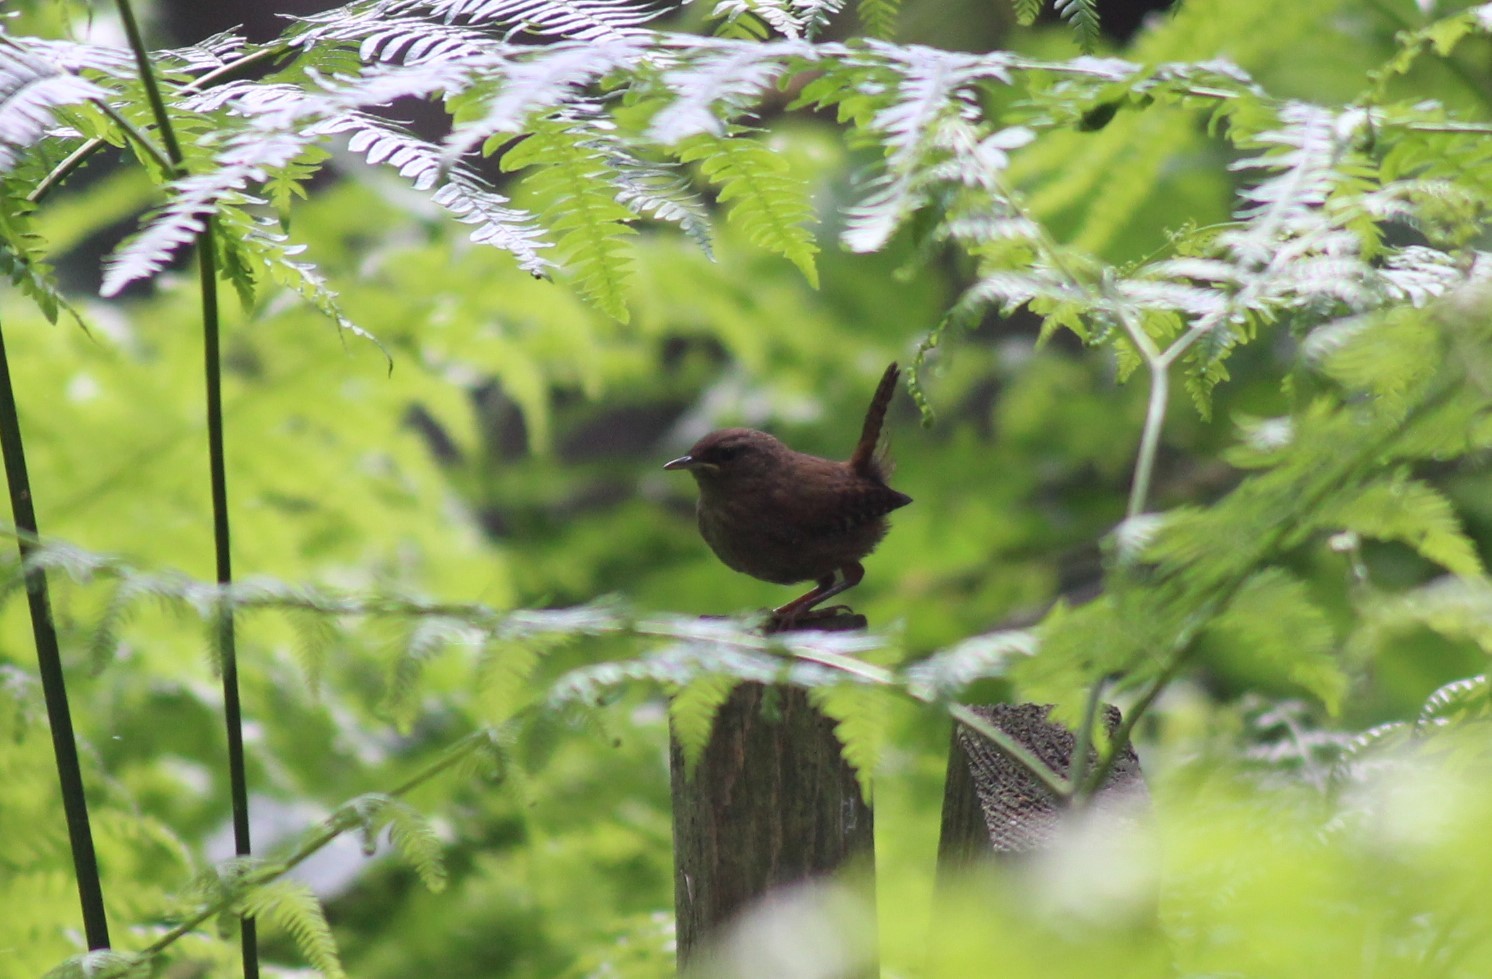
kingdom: Animalia
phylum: Chordata
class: Aves
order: Passeriformes
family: Troglodytidae
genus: Troglodytes
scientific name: Troglodytes troglodytes
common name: Eurasian wren
